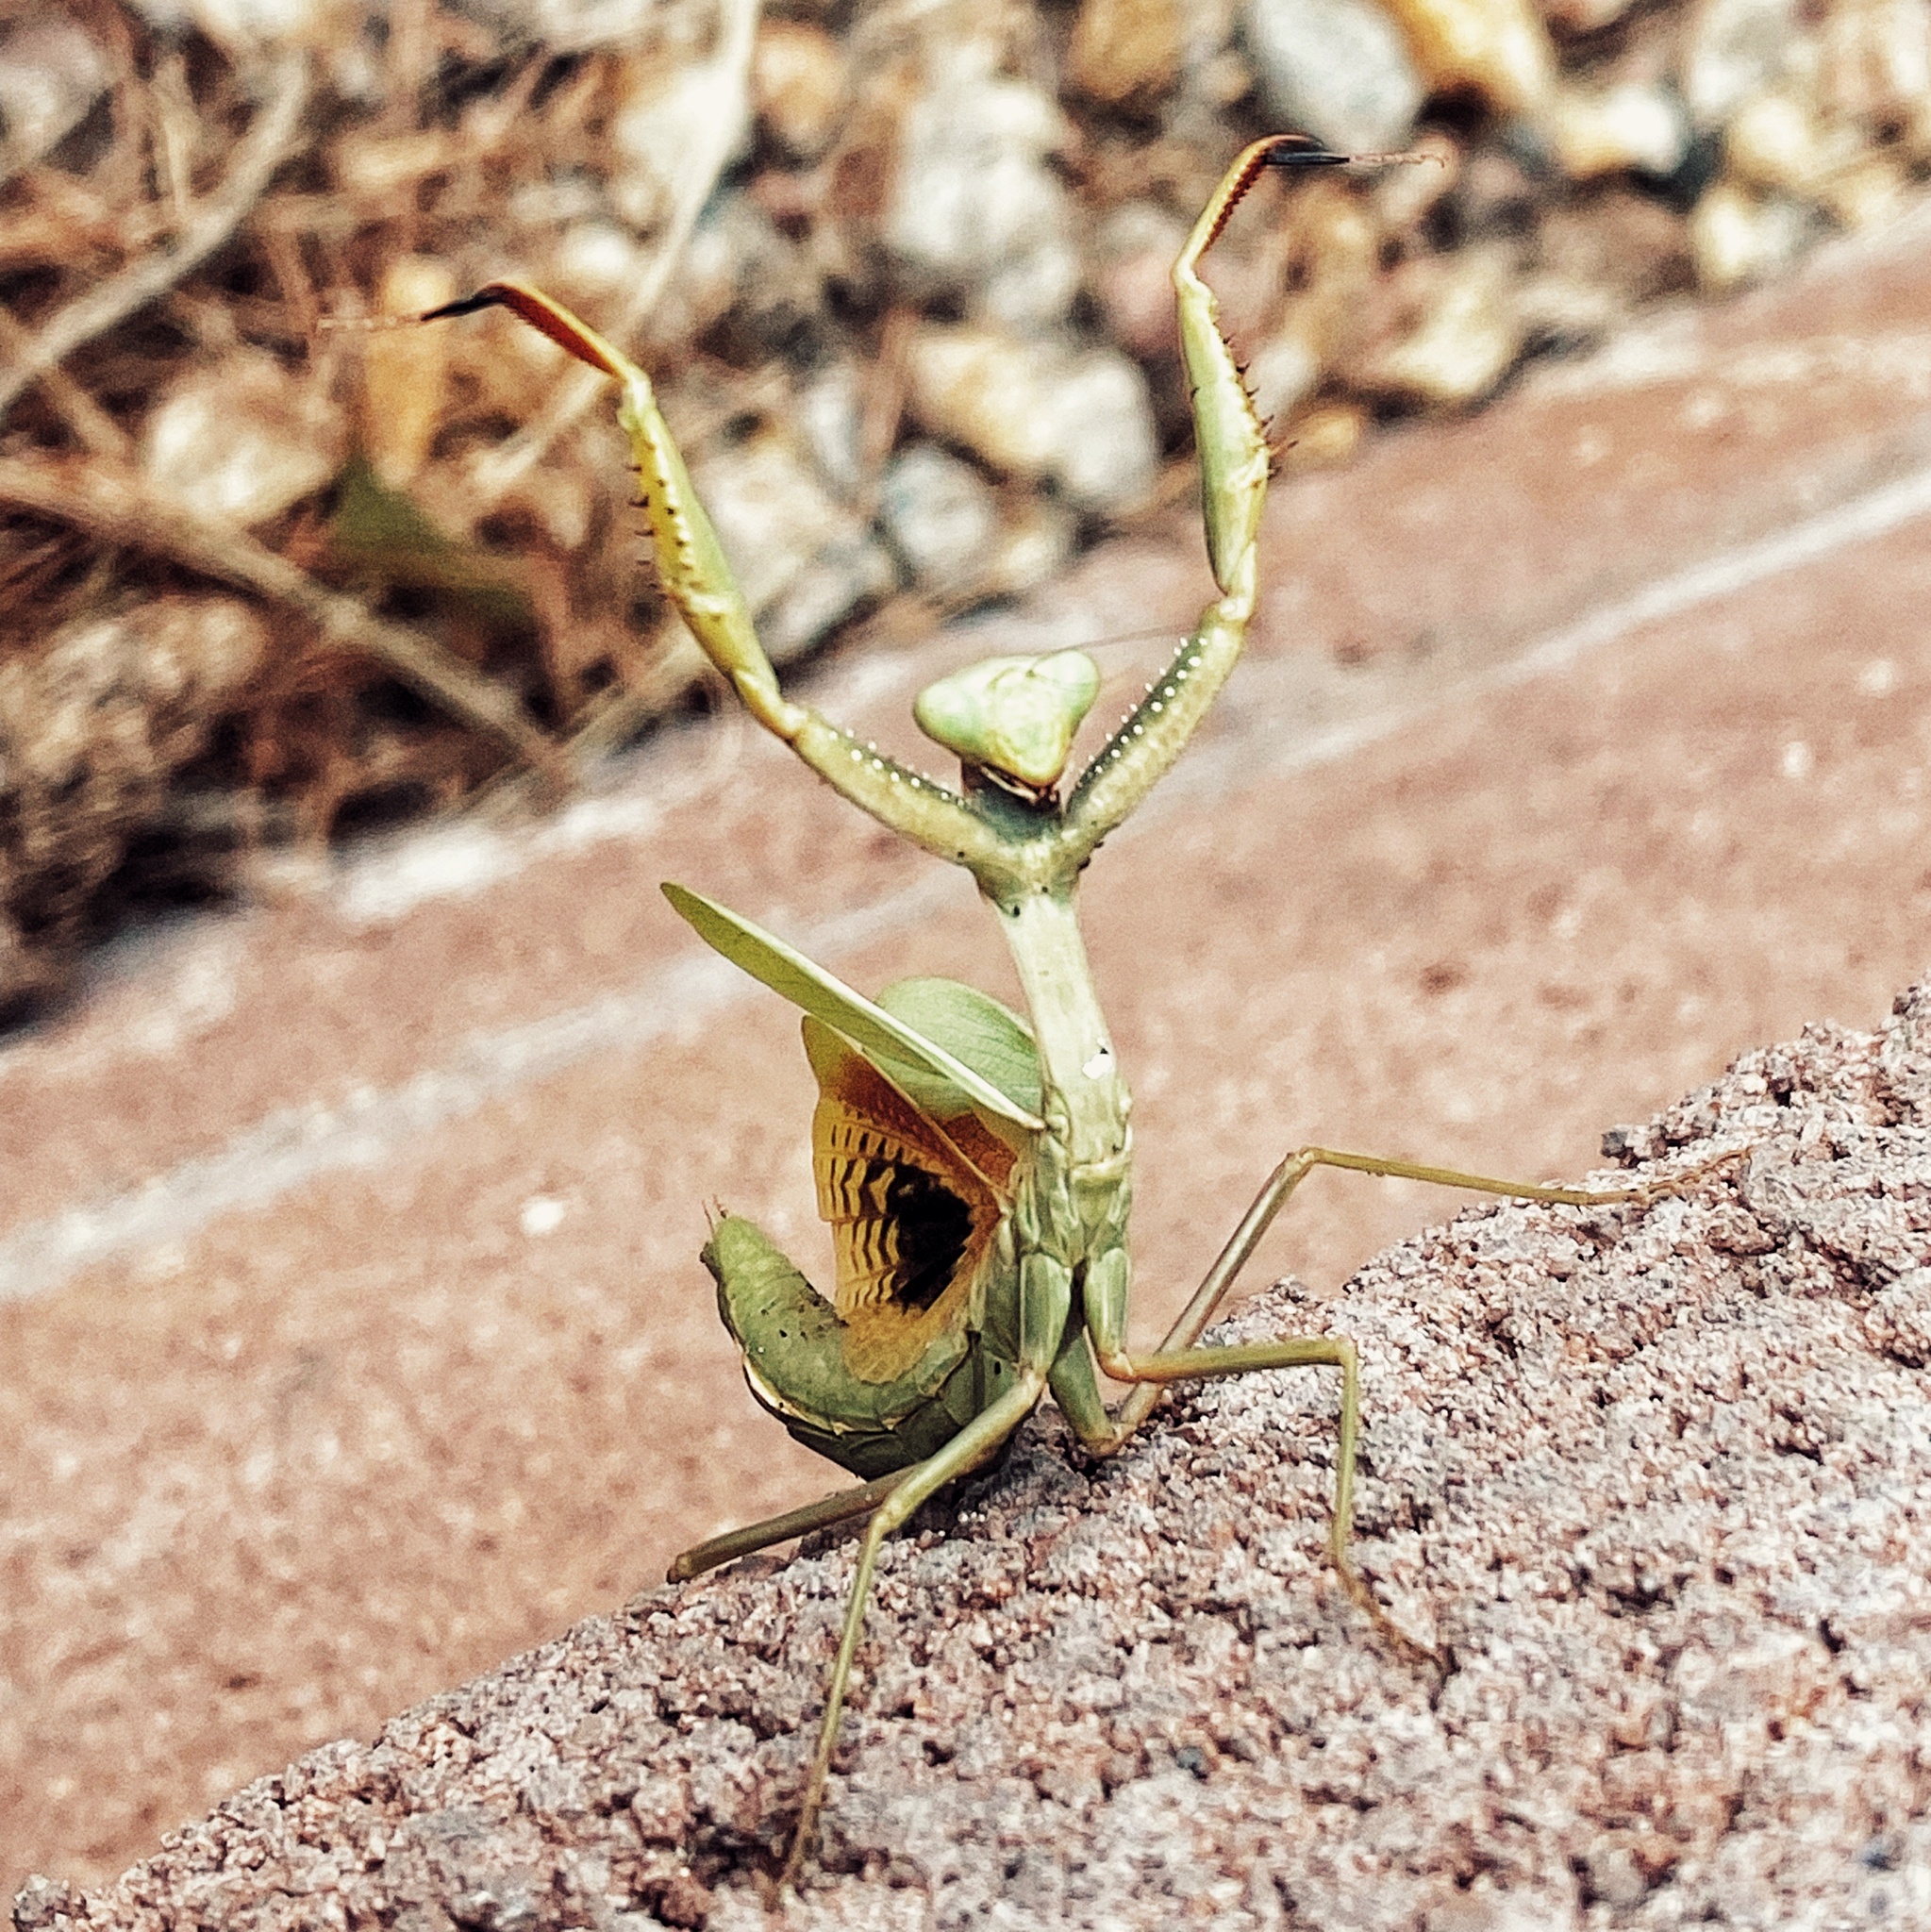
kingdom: Animalia
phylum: Arthropoda
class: Insecta
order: Mantodea
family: Eremiaphilidae
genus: Iris
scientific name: Iris oratoria
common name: Mediterranean mantis
